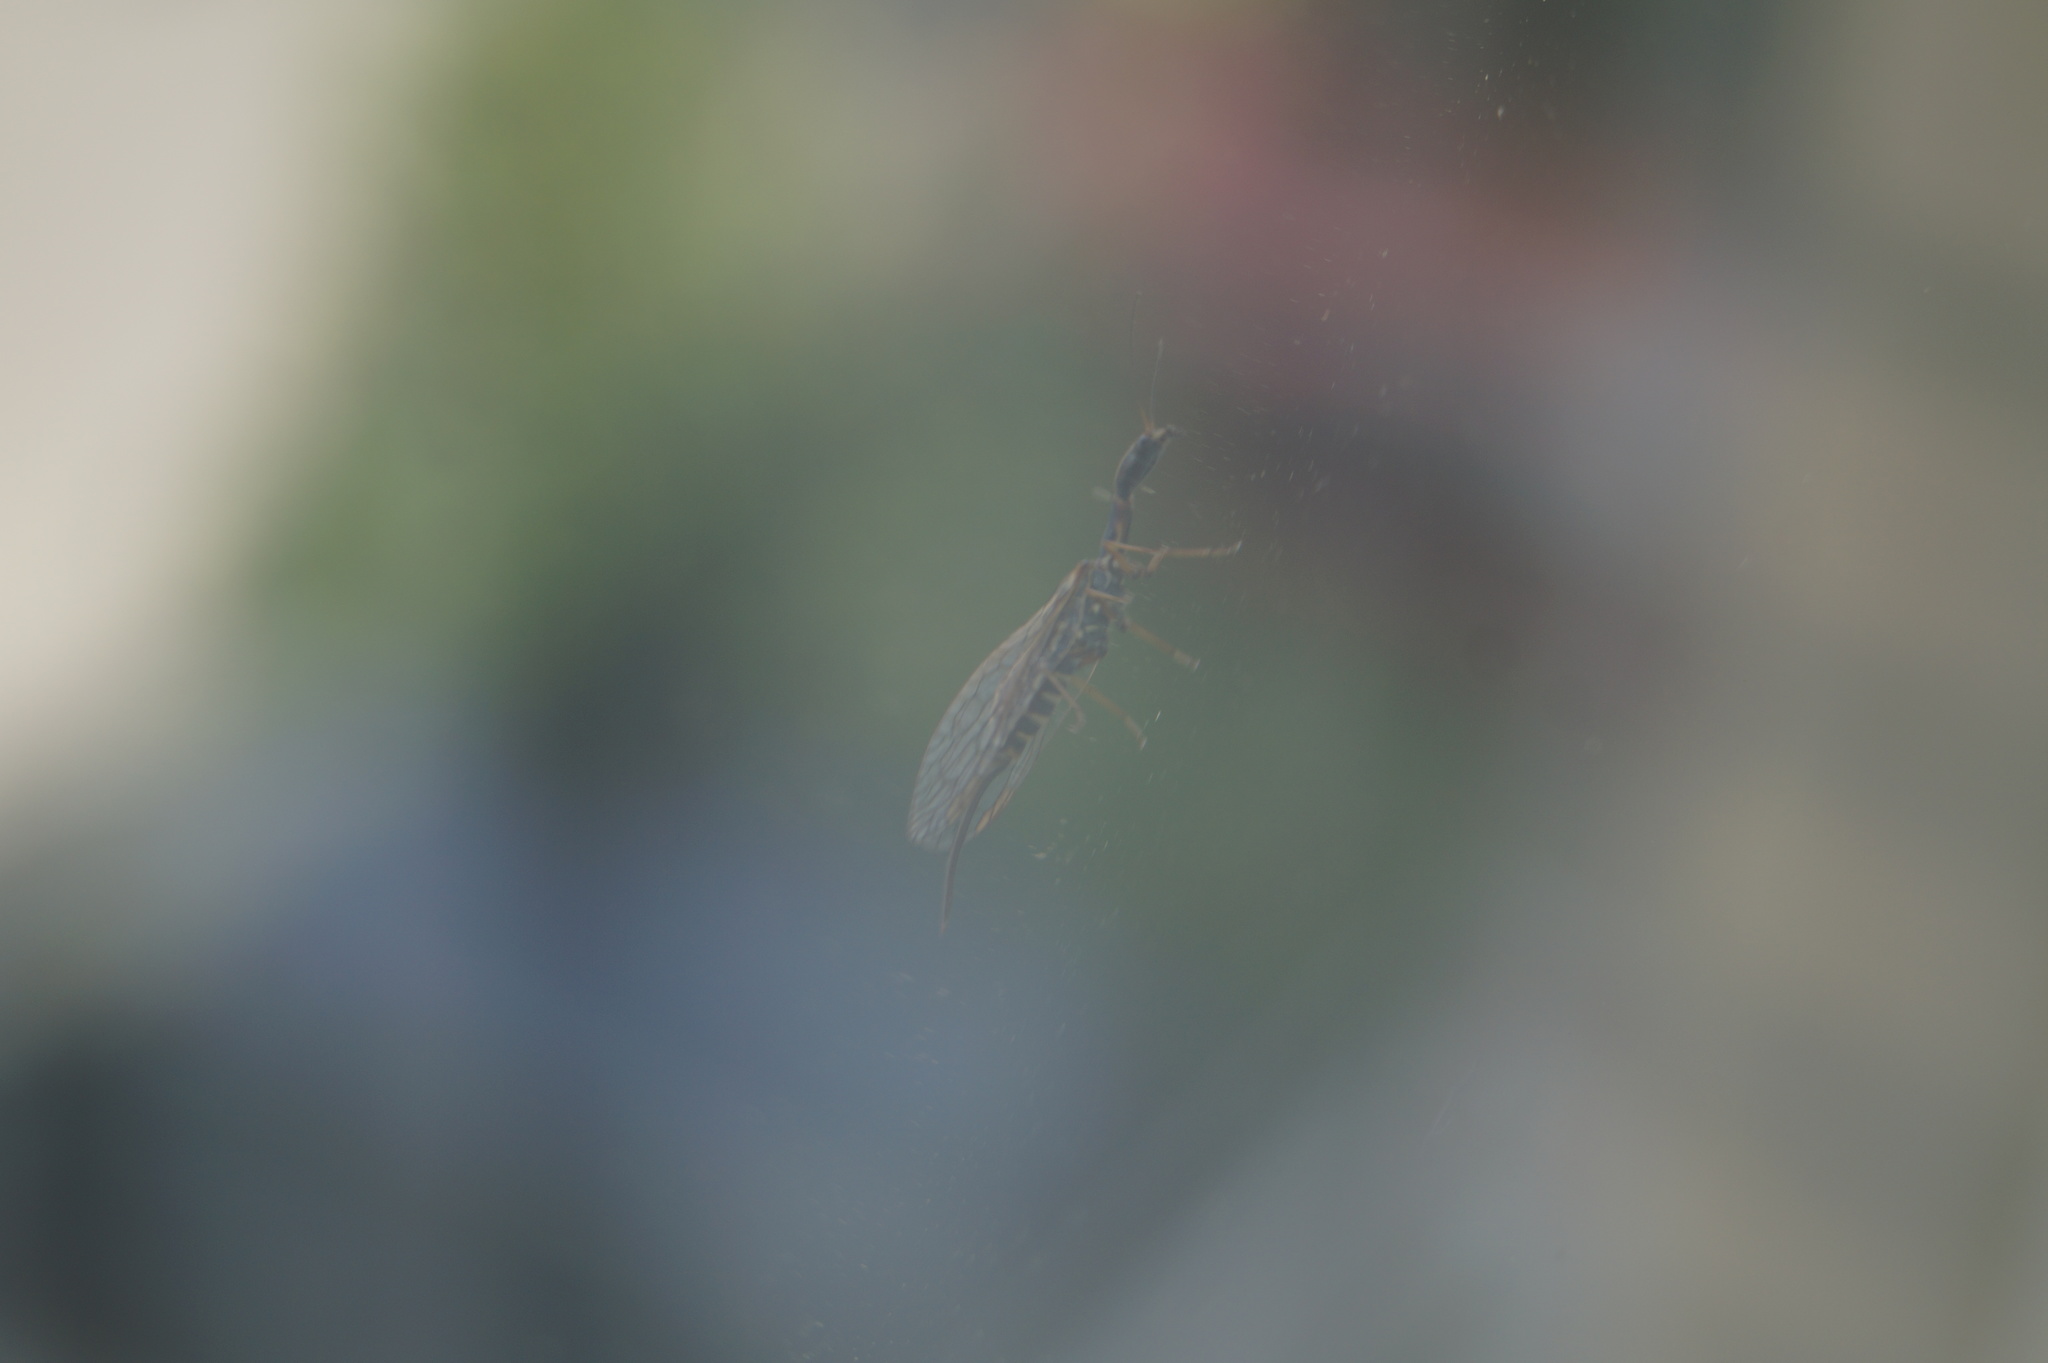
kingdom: Animalia
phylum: Arthropoda
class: Insecta
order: Raphidioptera
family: Raphidiidae
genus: Atlantoraphidia
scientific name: Atlantoraphidia maculicollis
